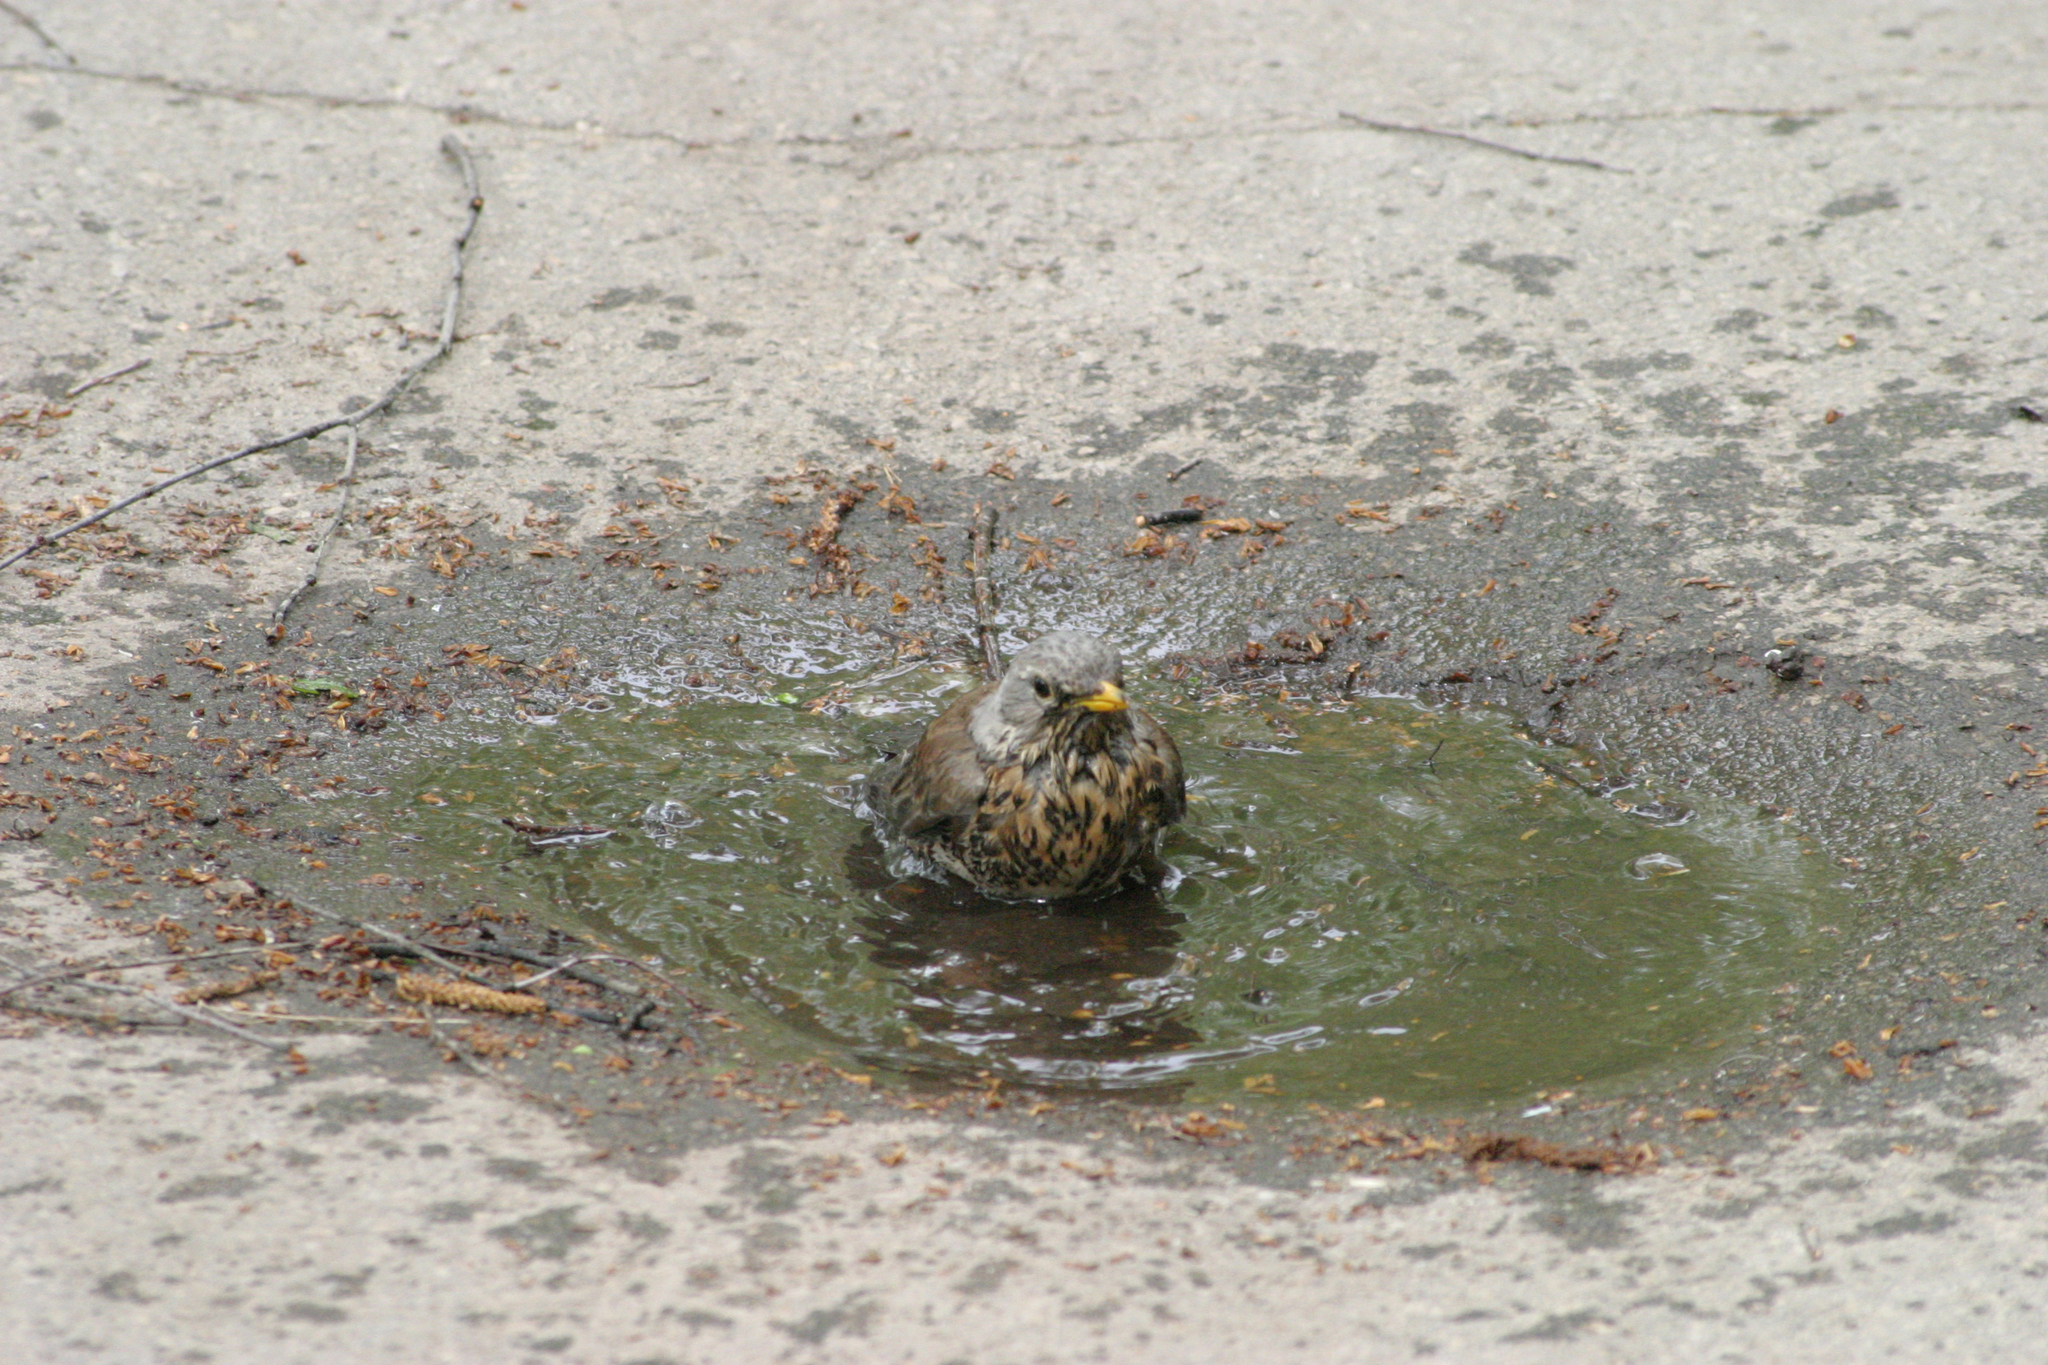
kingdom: Animalia
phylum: Chordata
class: Aves
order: Passeriformes
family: Turdidae
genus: Turdus
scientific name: Turdus pilaris
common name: Fieldfare
